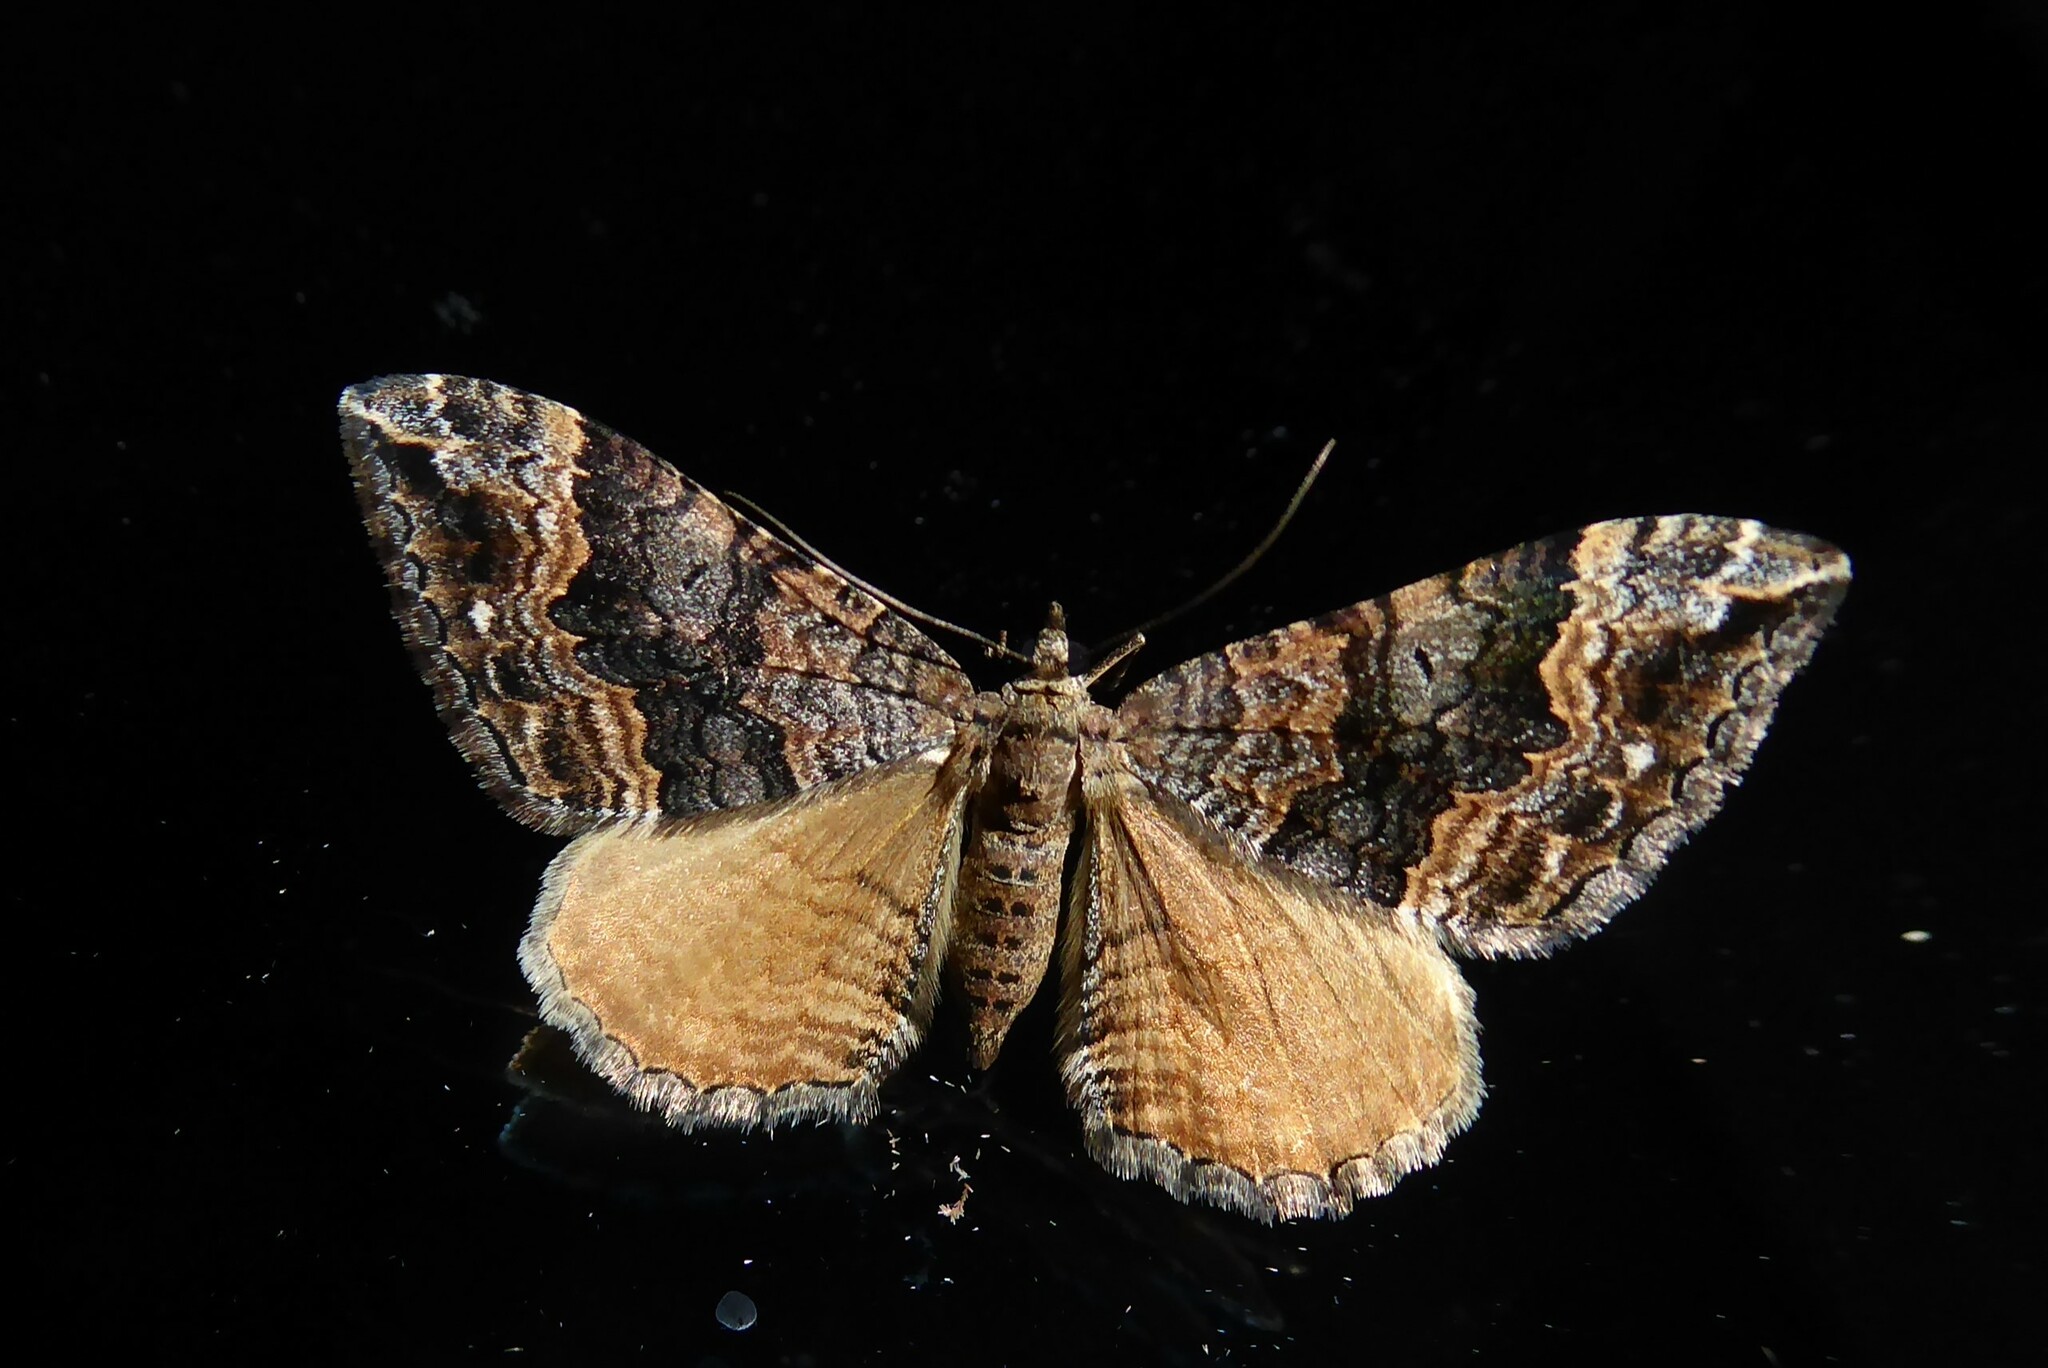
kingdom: Animalia
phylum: Arthropoda
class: Insecta
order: Lepidoptera
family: Geometridae
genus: Hydriomena
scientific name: Hydriomena deltoidata
